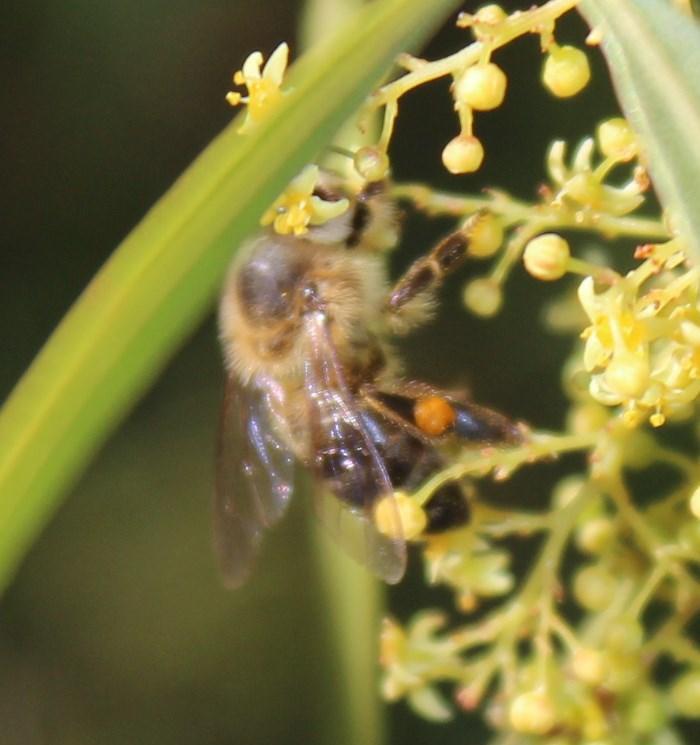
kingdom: Animalia
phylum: Arthropoda
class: Insecta
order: Hymenoptera
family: Apidae
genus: Apis
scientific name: Apis mellifera
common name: Honey bee
